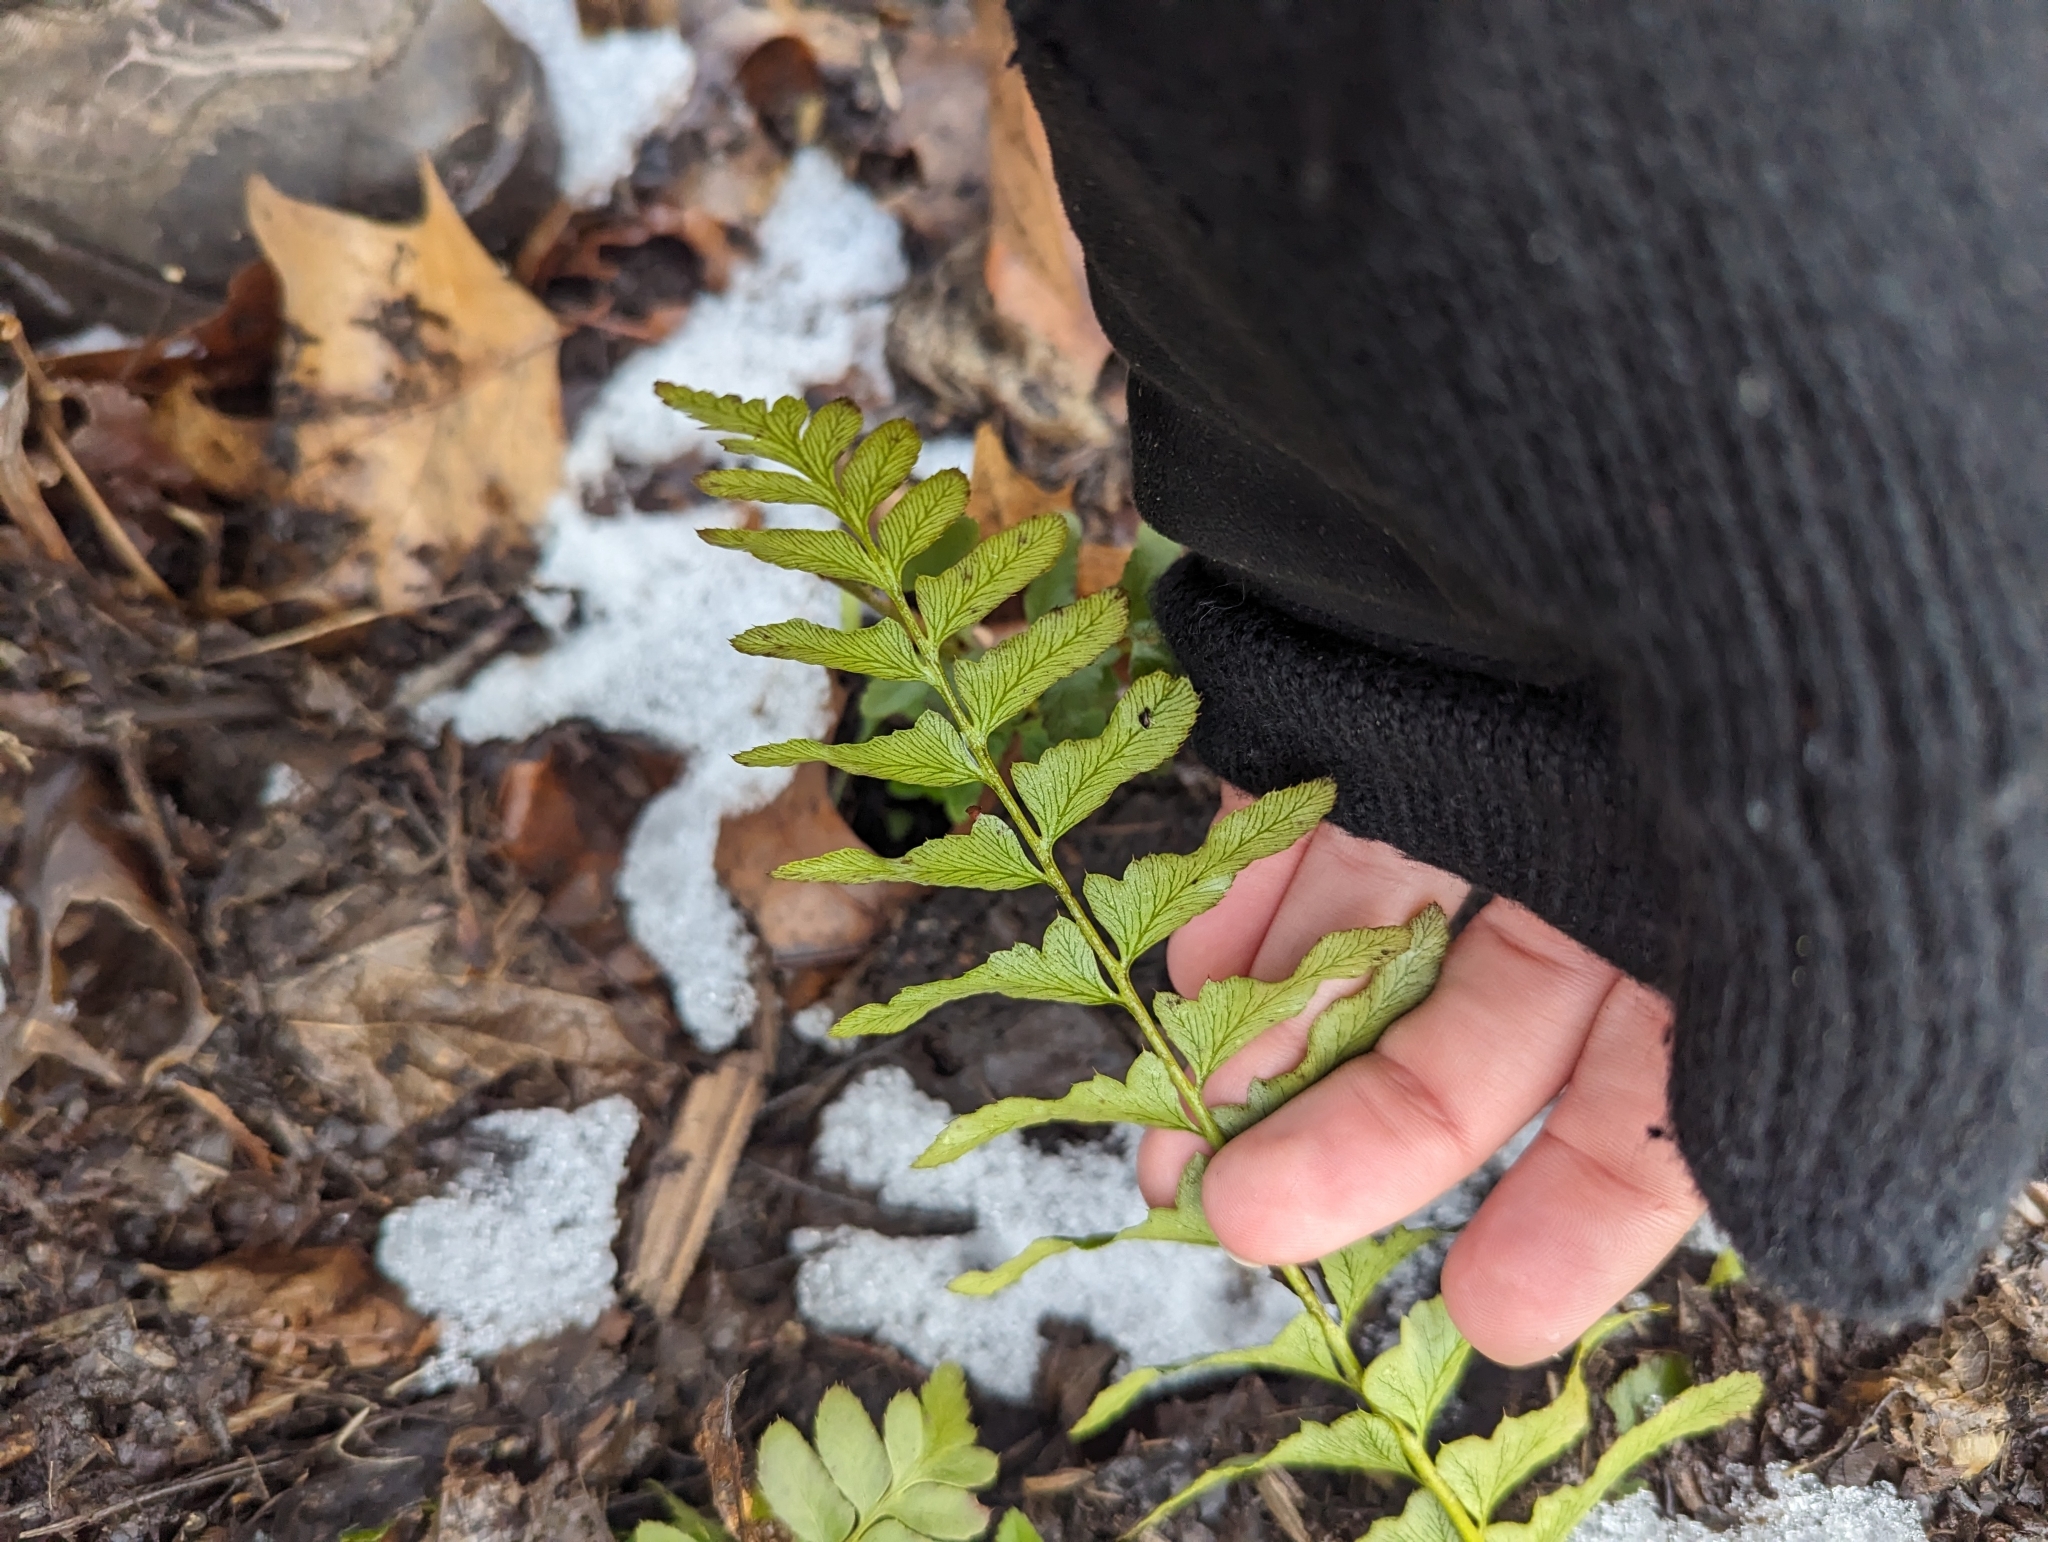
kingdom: Plantae
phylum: Tracheophyta
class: Polypodiopsida
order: Polypodiales
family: Dryopteridaceae
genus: Polystichum
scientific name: Polystichum acrostichoides
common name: Christmas fern
